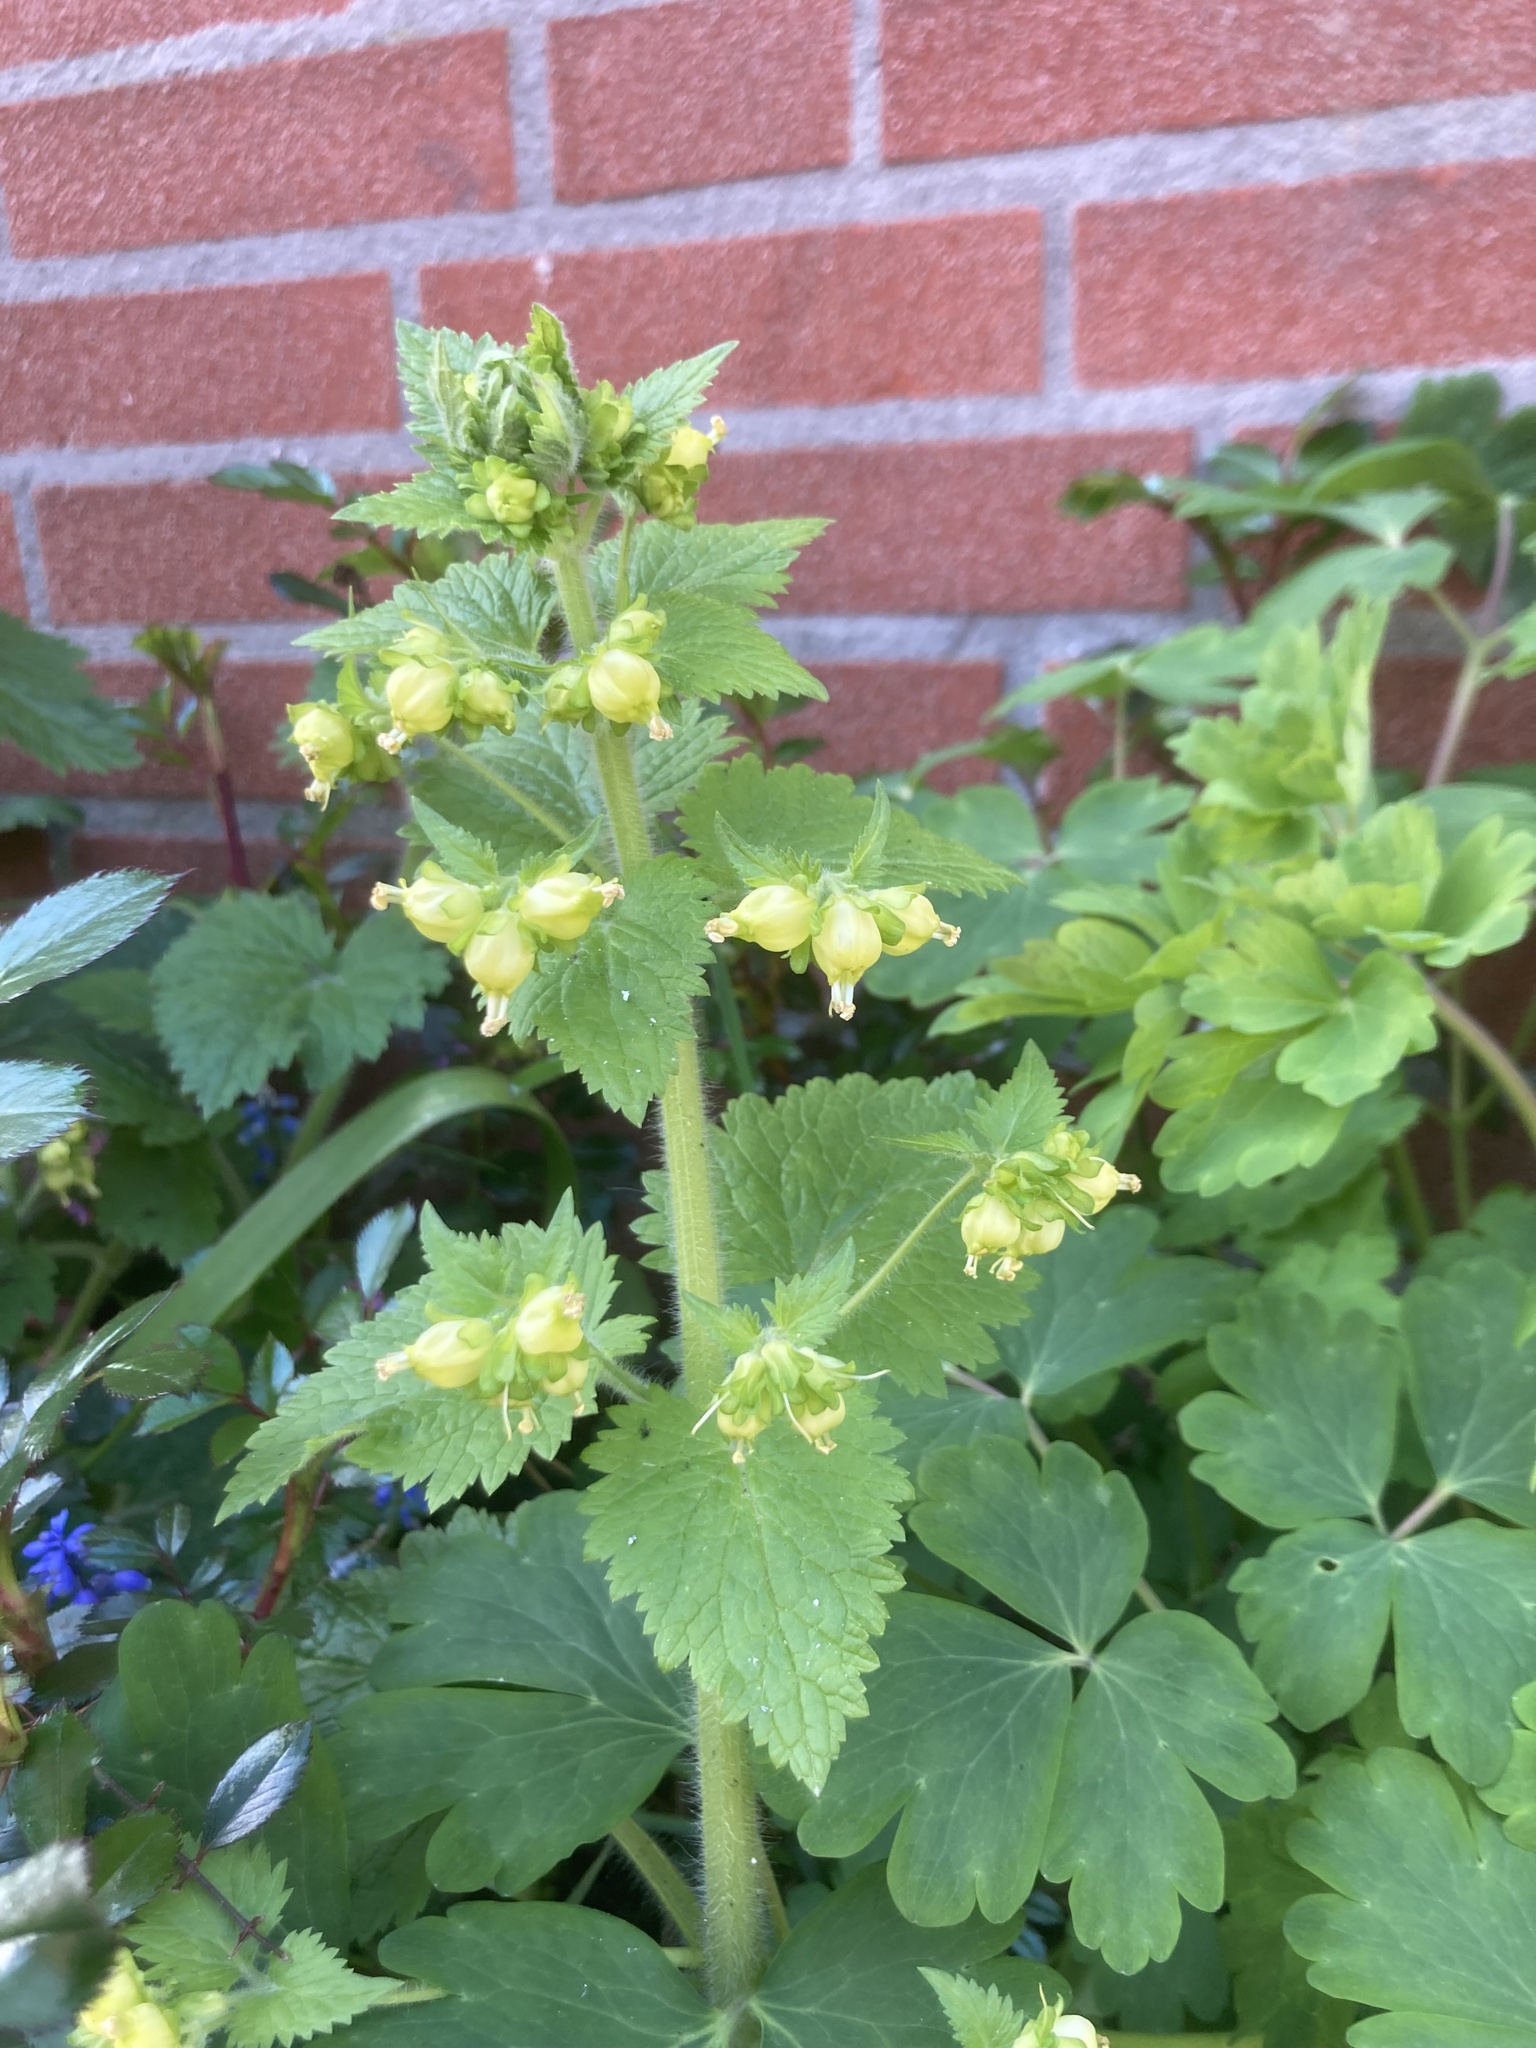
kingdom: Plantae
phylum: Tracheophyta
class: Magnoliopsida
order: Lamiales
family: Scrophulariaceae
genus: Scrophularia
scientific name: Scrophularia vernalis
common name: Yellow figwort
